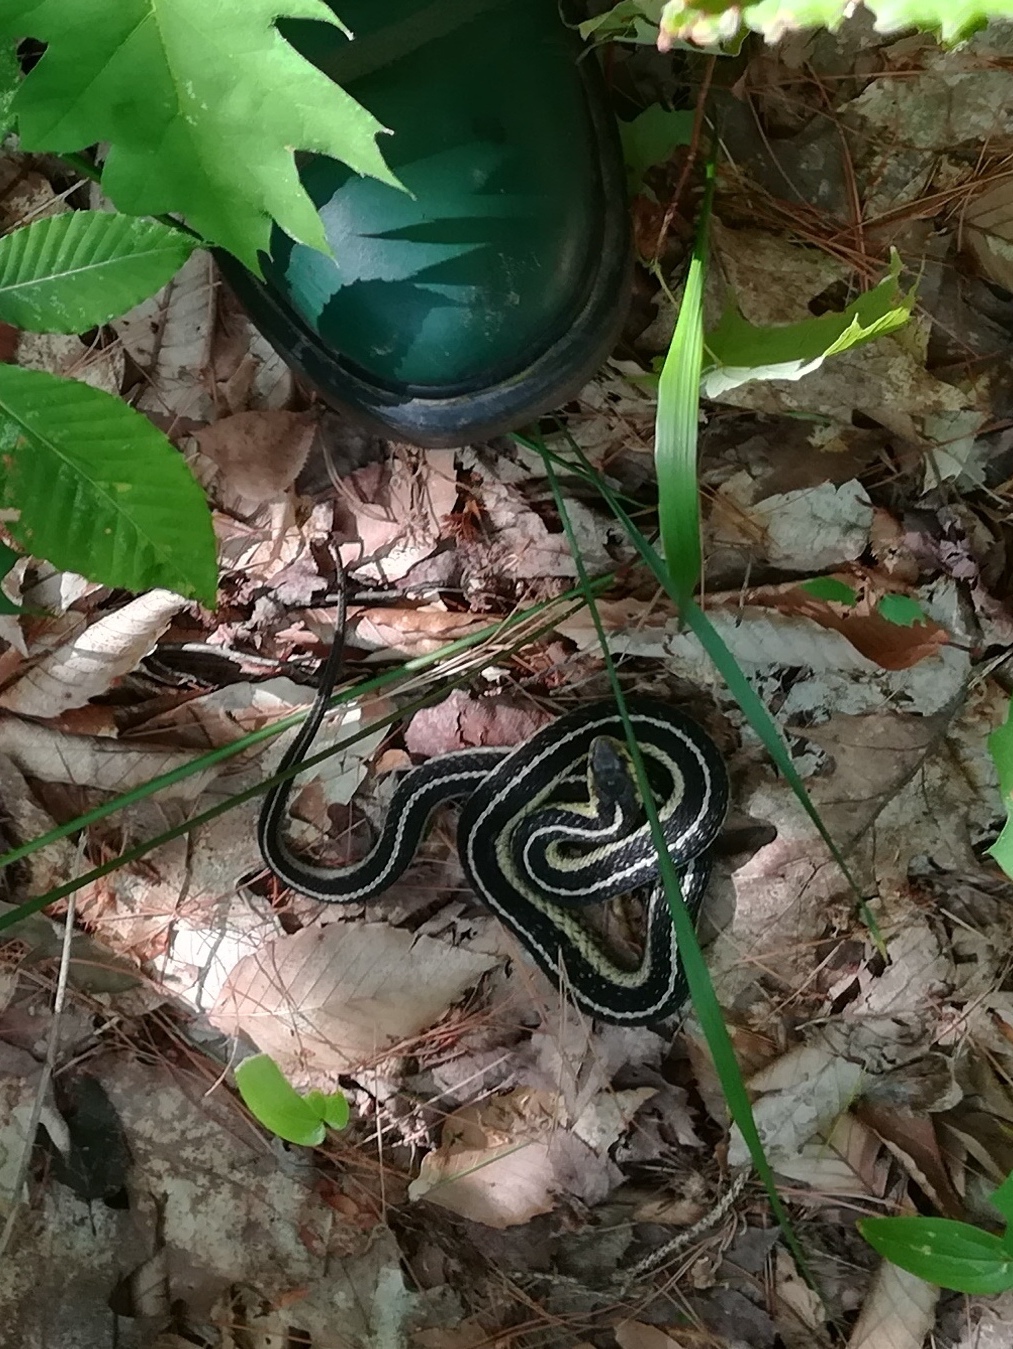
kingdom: Animalia
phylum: Chordata
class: Squamata
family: Colubridae
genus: Thamnophis
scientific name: Thamnophis sirtalis
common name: Common garter snake
